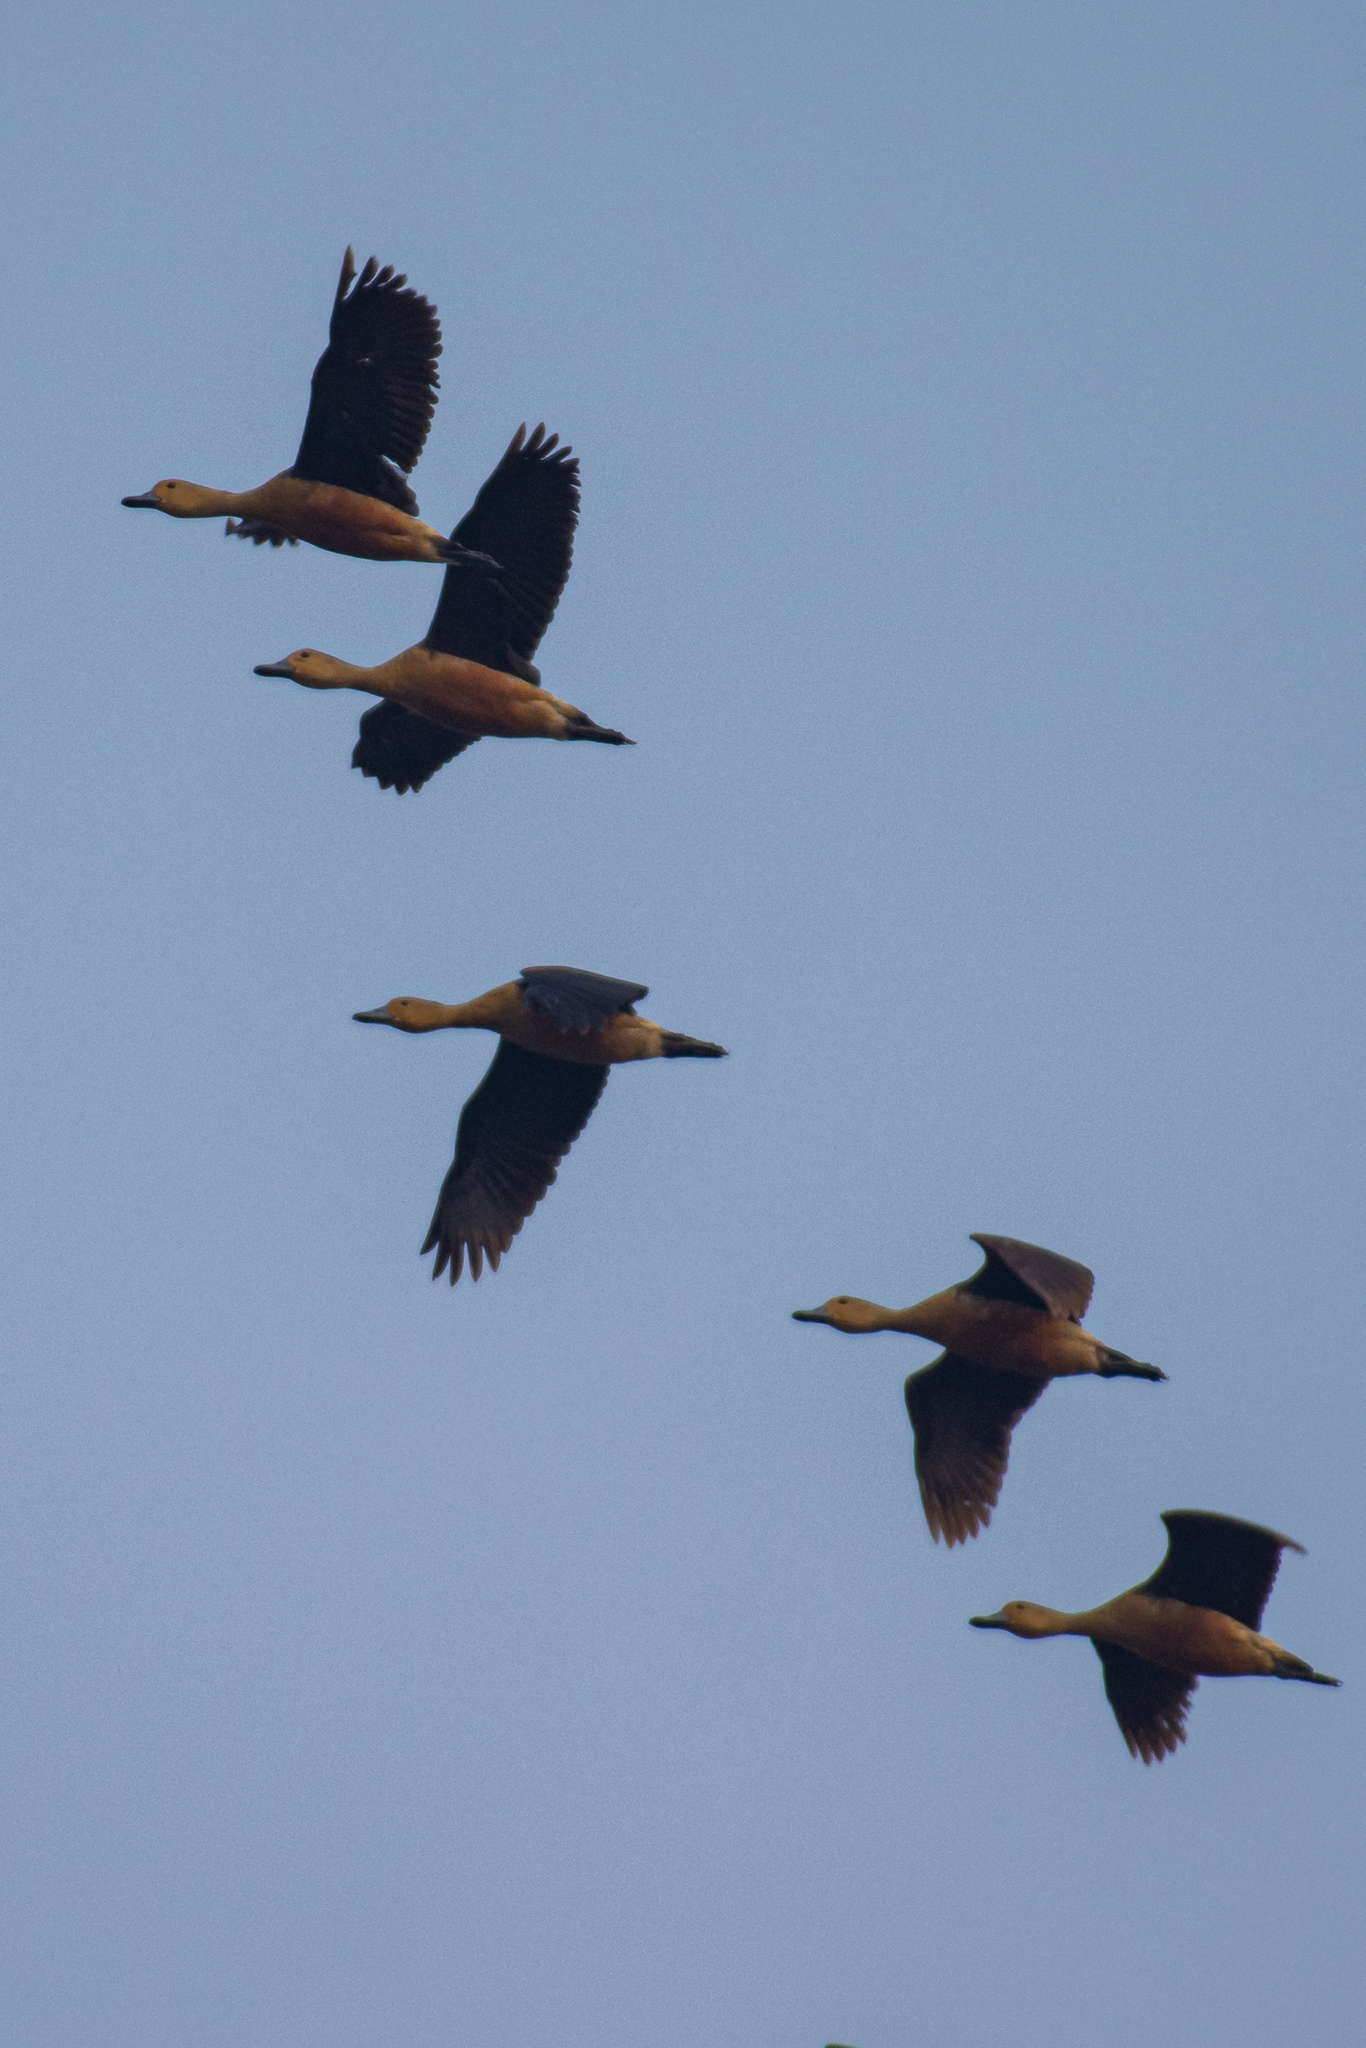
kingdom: Animalia
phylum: Chordata
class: Aves
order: Anseriformes
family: Anatidae
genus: Dendrocygna
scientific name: Dendrocygna javanica
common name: Lesser whistling-duck
